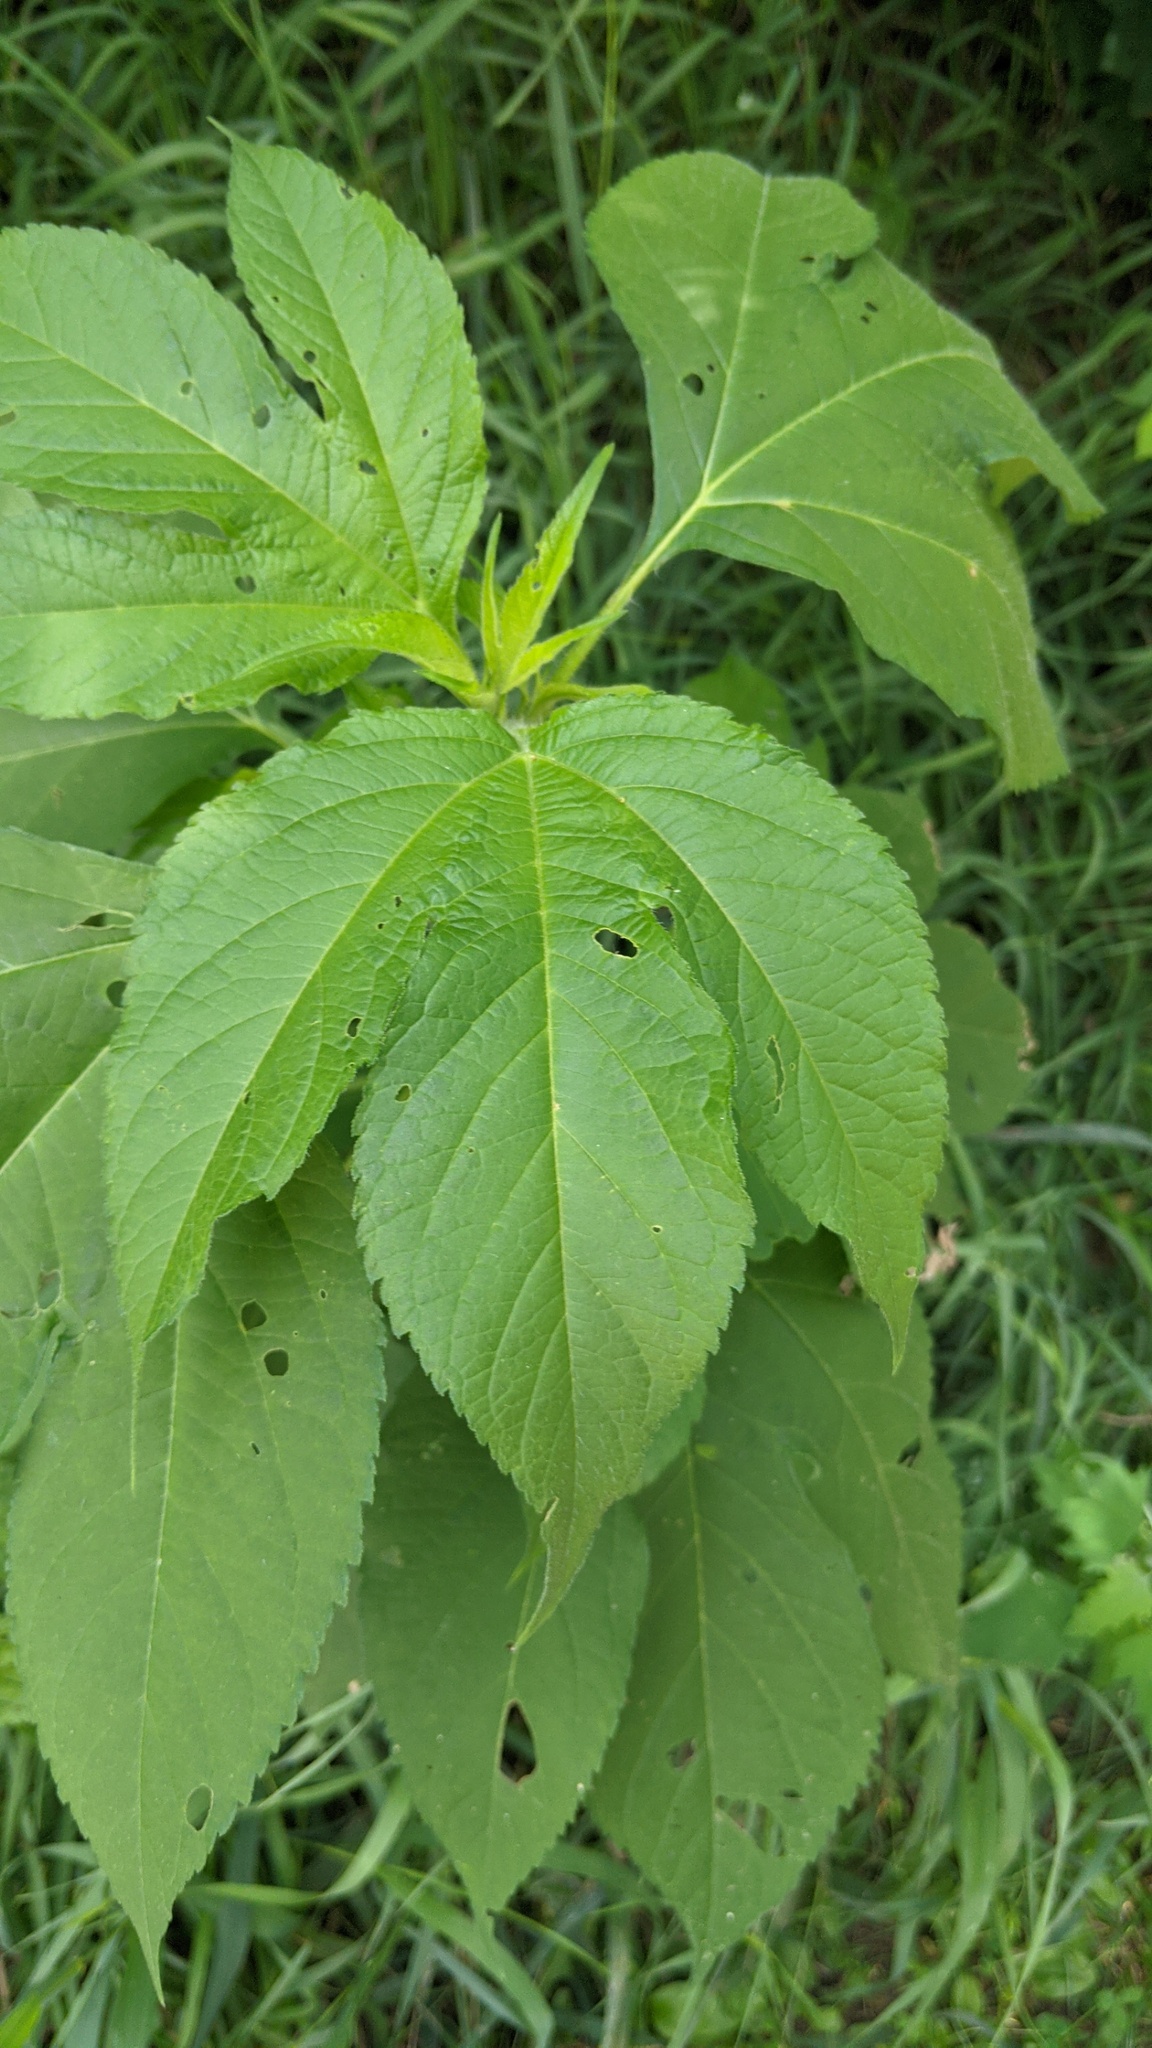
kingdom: Plantae
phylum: Tracheophyta
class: Magnoliopsida
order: Asterales
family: Asteraceae
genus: Ambrosia
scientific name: Ambrosia trifida
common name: Giant ragweed
